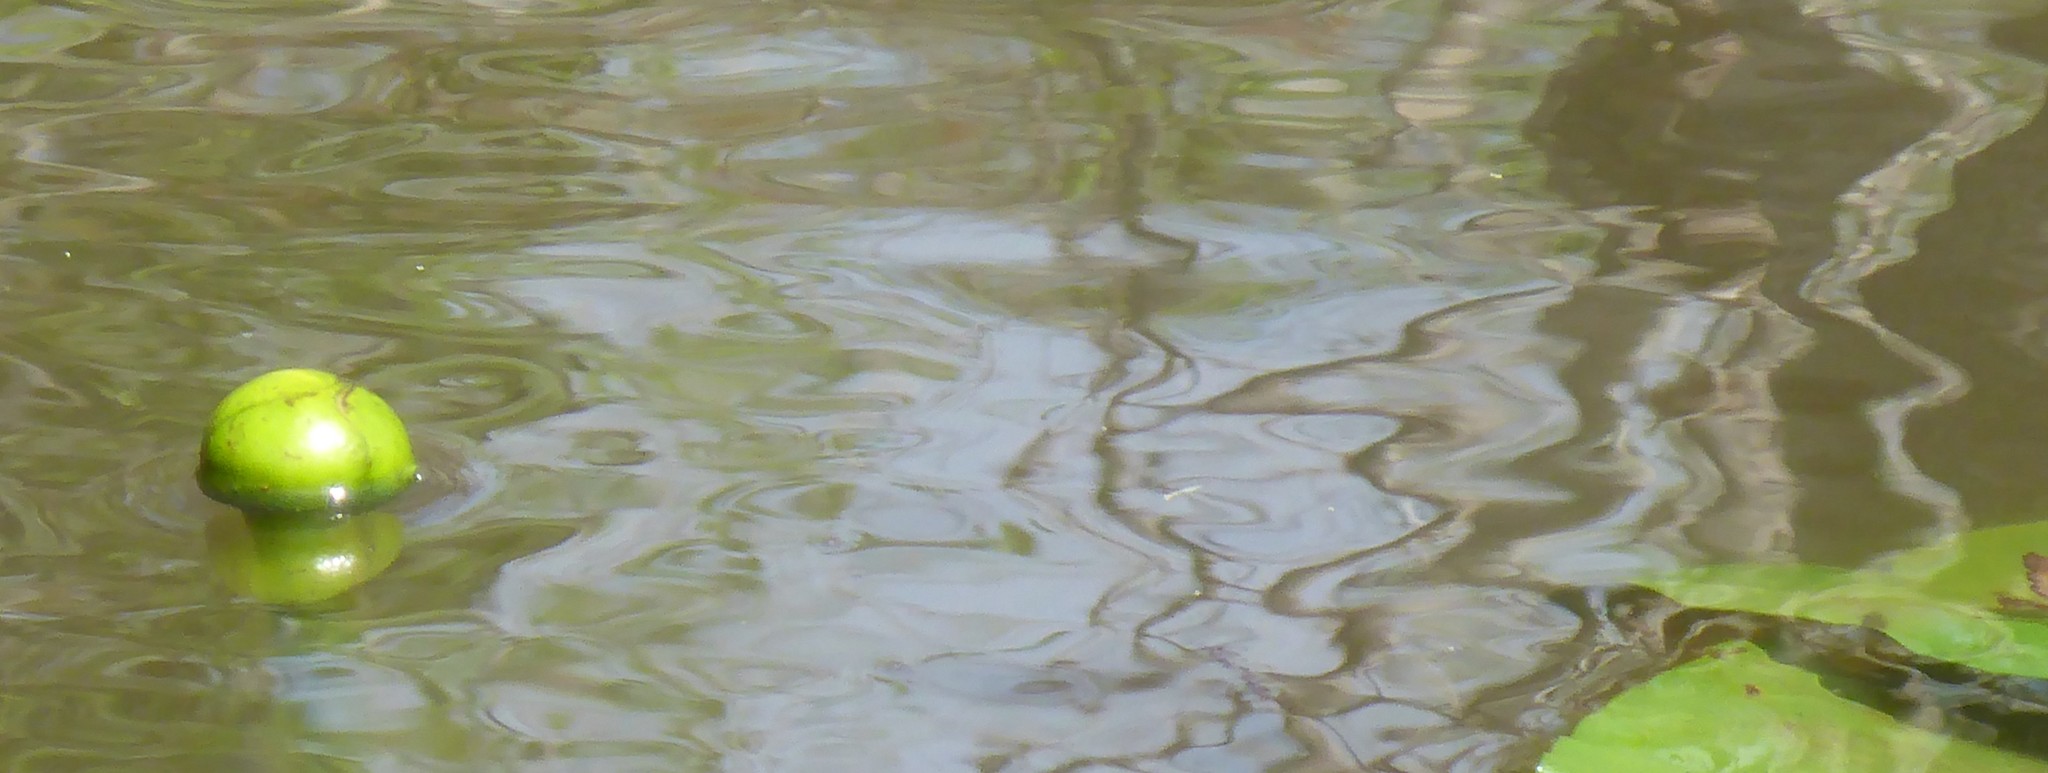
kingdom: Plantae
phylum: Tracheophyta
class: Magnoliopsida
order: Nymphaeales
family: Nymphaeaceae
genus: Nuphar
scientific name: Nuphar advena
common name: Spatter-dock
